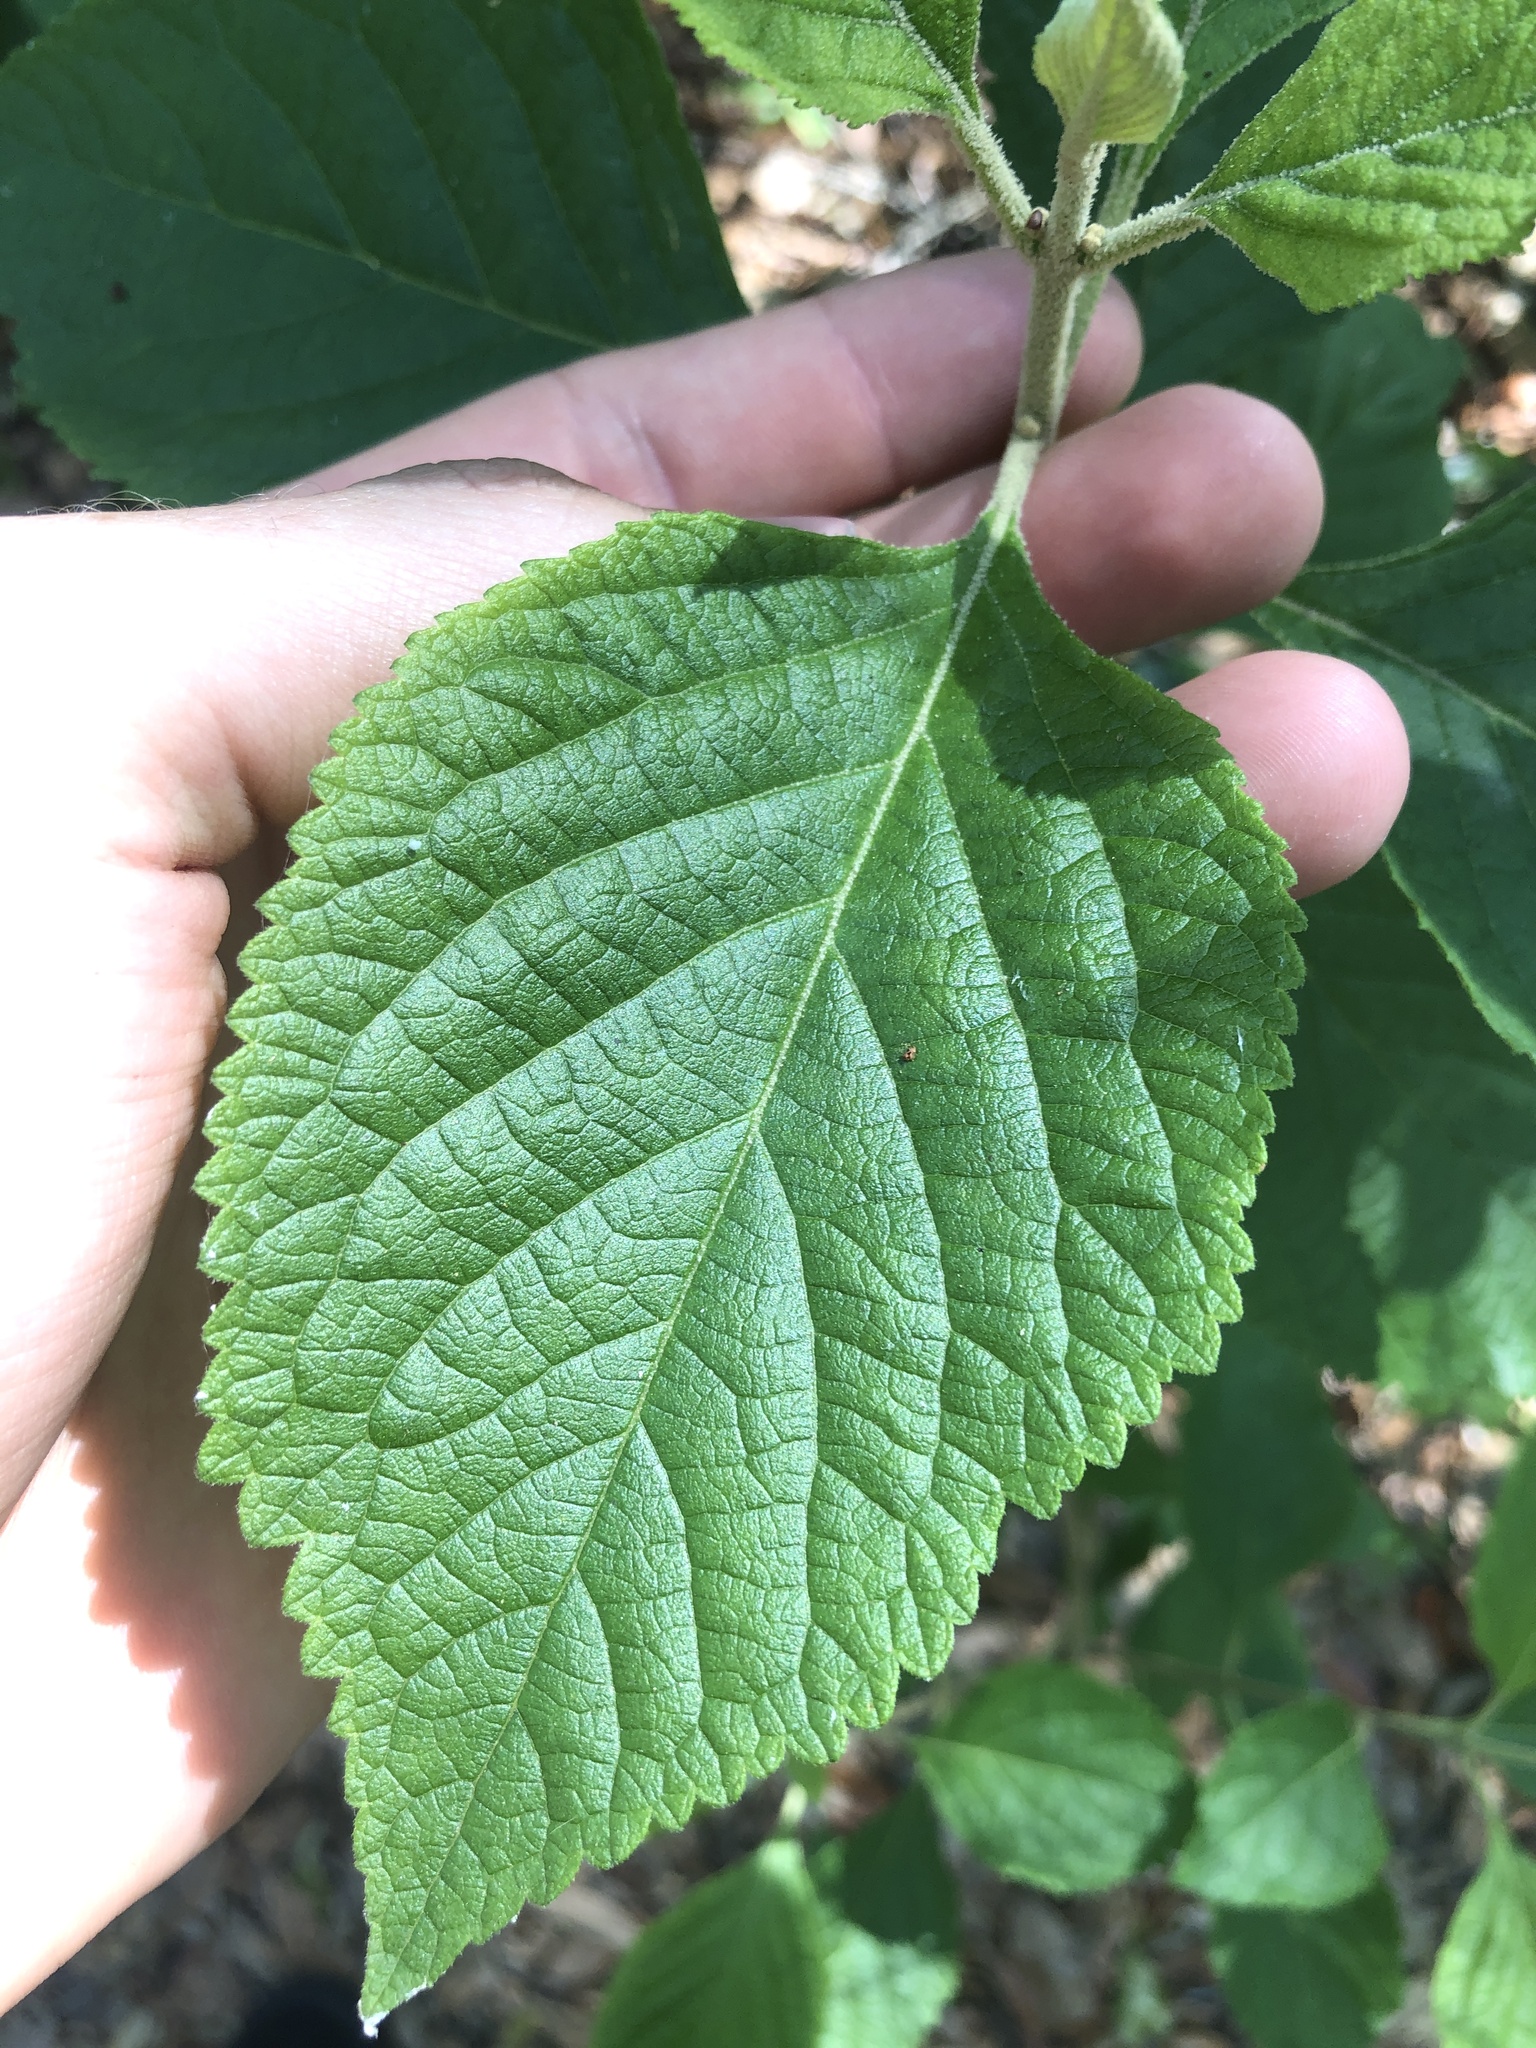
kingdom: Plantae
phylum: Tracheophyta
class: Magnoliopsida
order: Lamiales
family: Lamiaceae
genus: Callicarpa
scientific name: Callicarpa americana
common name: American beautyberry
